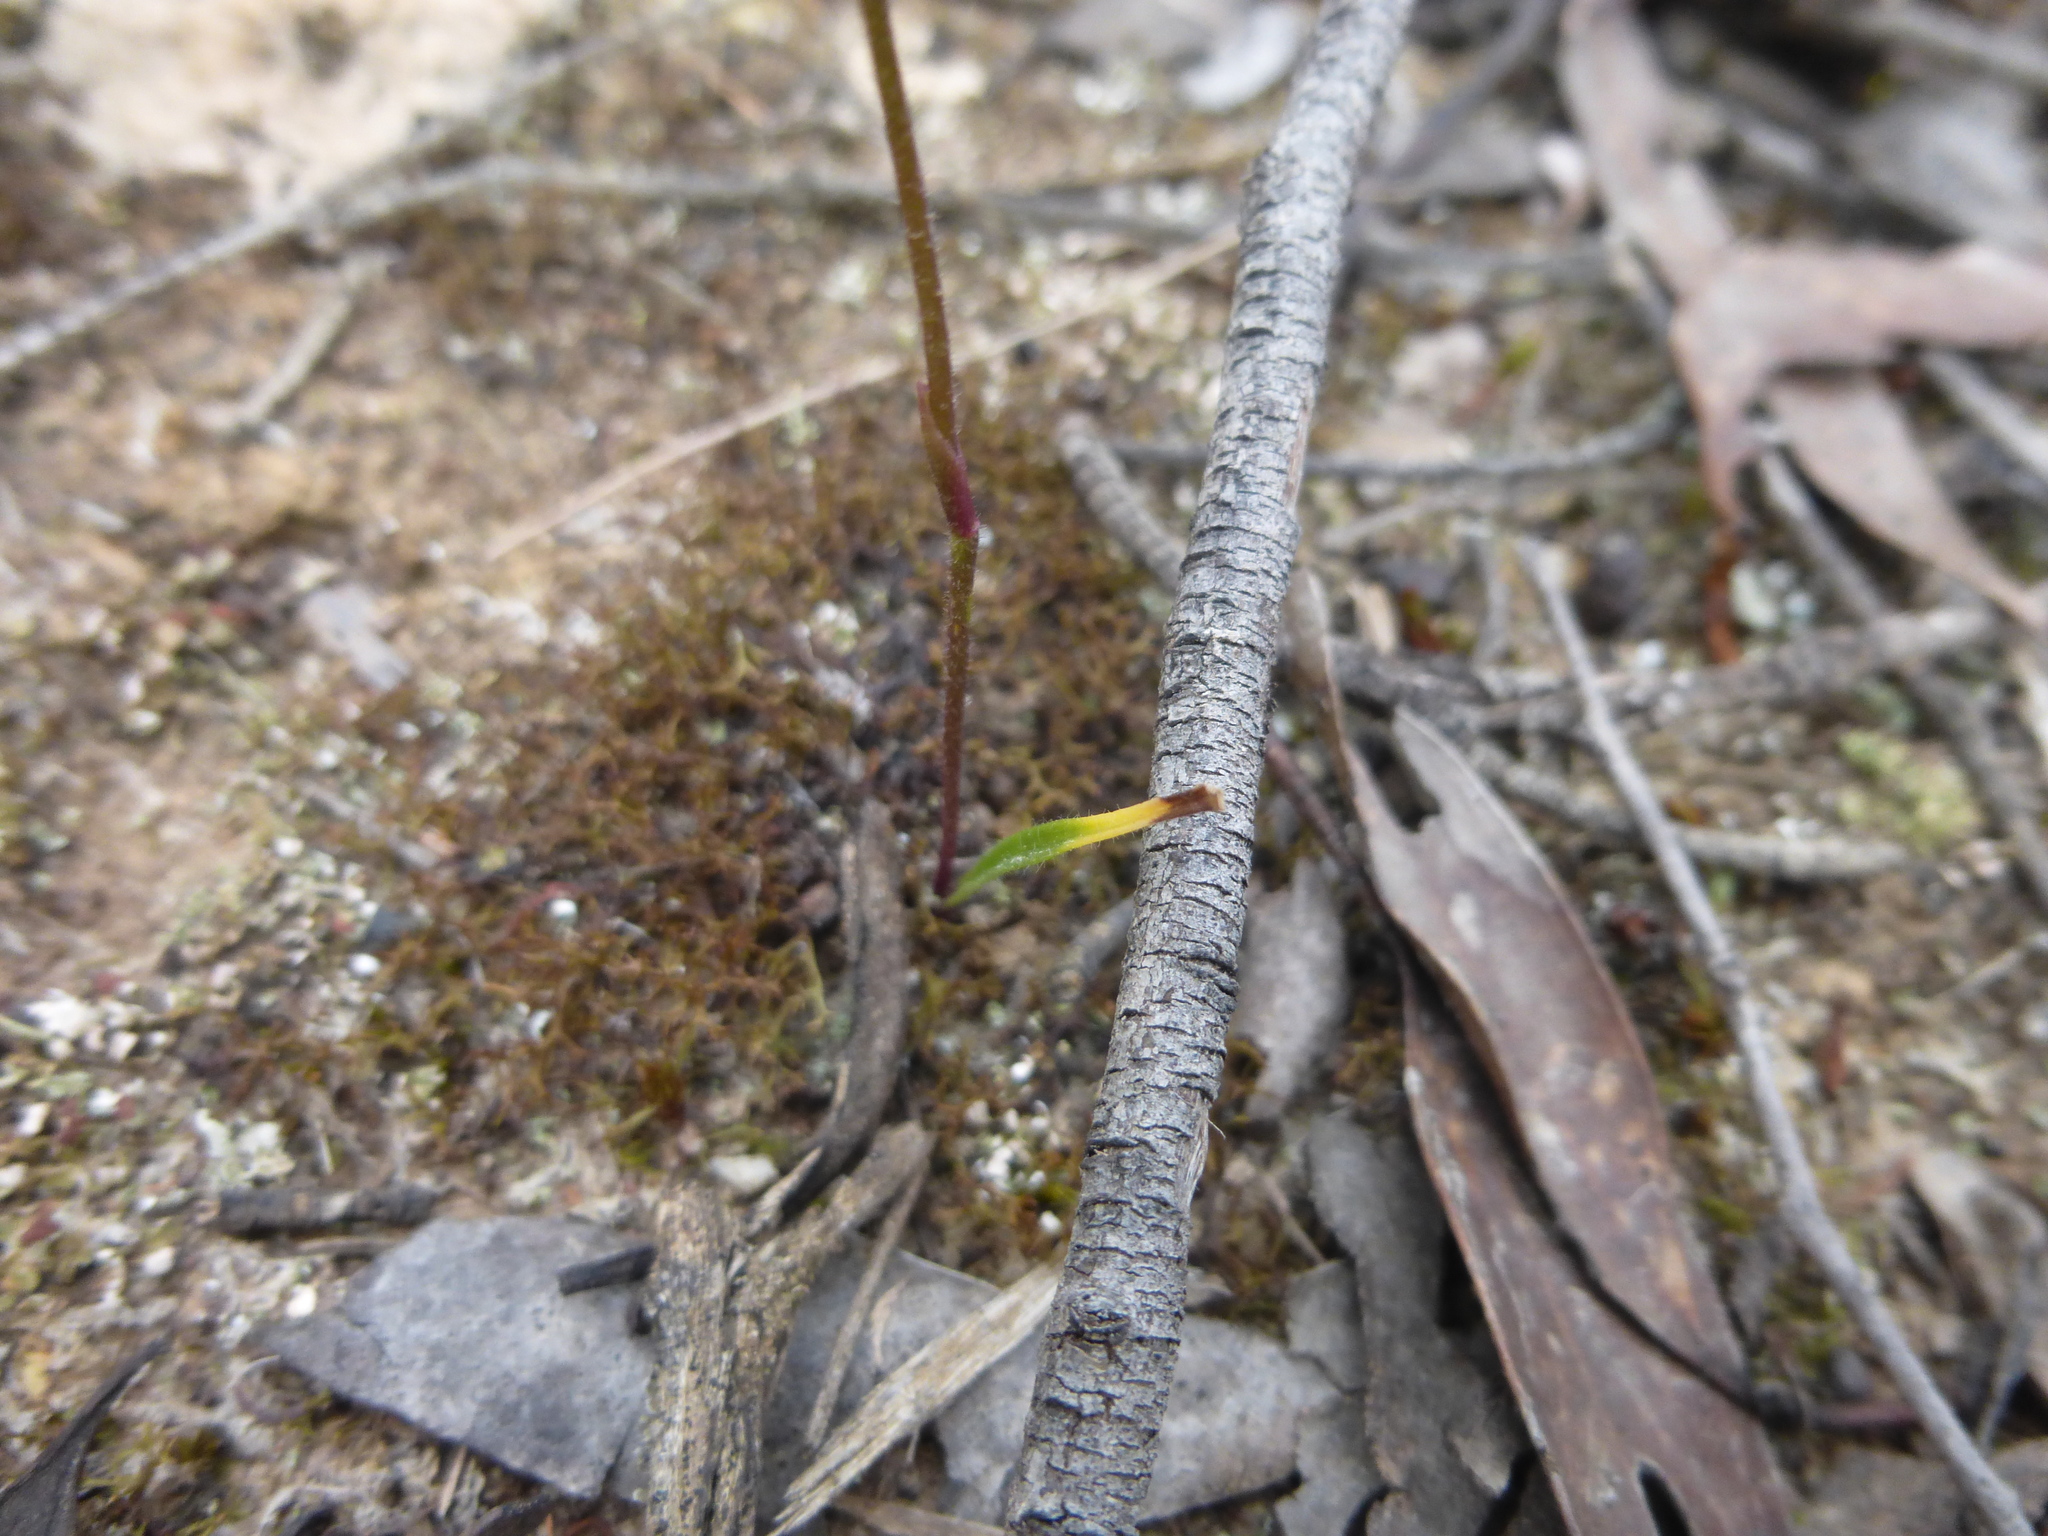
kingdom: Plantae
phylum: Tracheophyta
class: Liliopsida
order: Asparagales
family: Orchidaceae
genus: Caladenia
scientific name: Caladenia carnea
